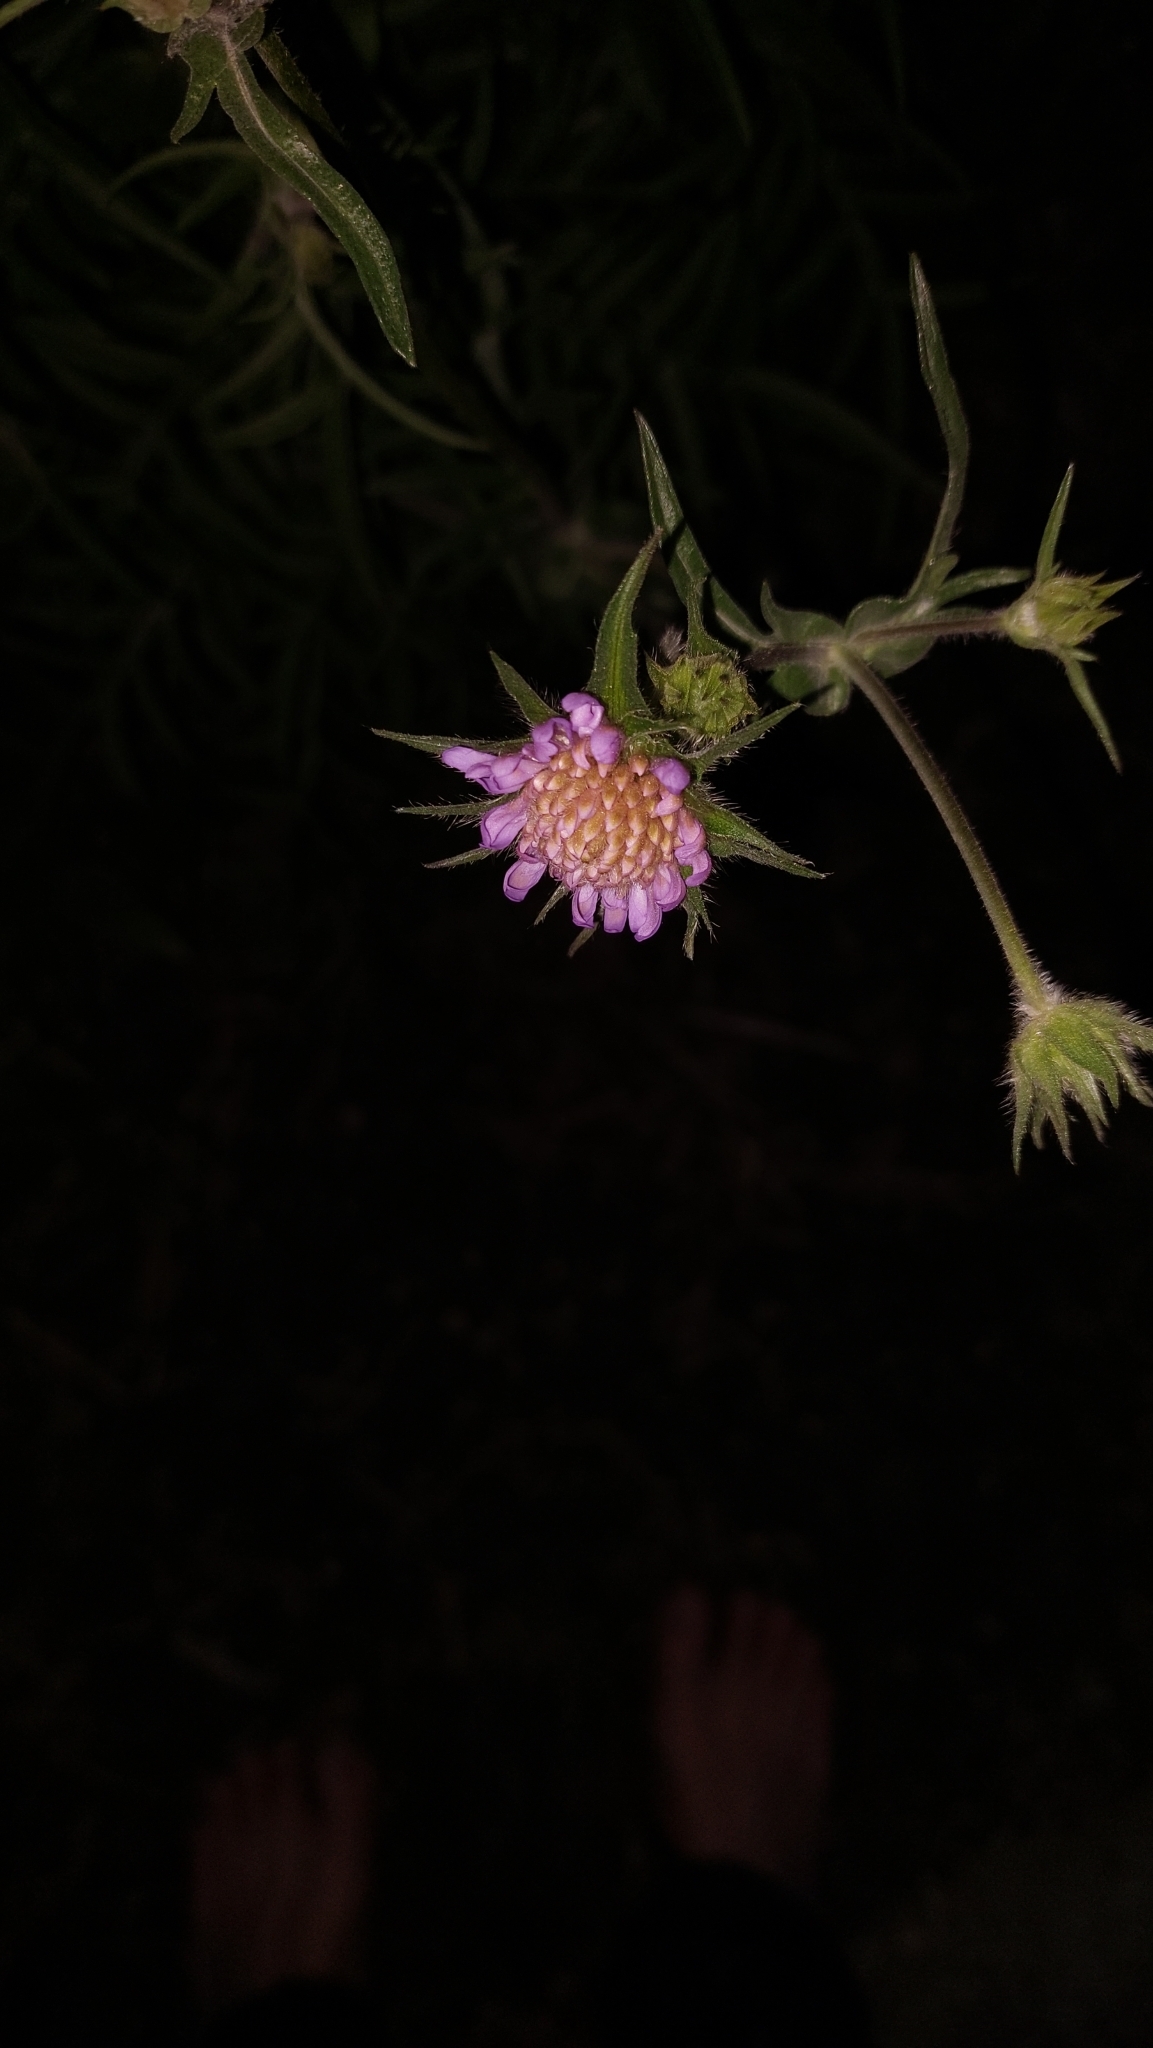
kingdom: Plantae
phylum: Tracheophyta
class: Magnoliopsida
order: Dipsacales
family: Caprifoliaceae
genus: Knautia
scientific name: Knautia arvensis
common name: Field scabiosa
